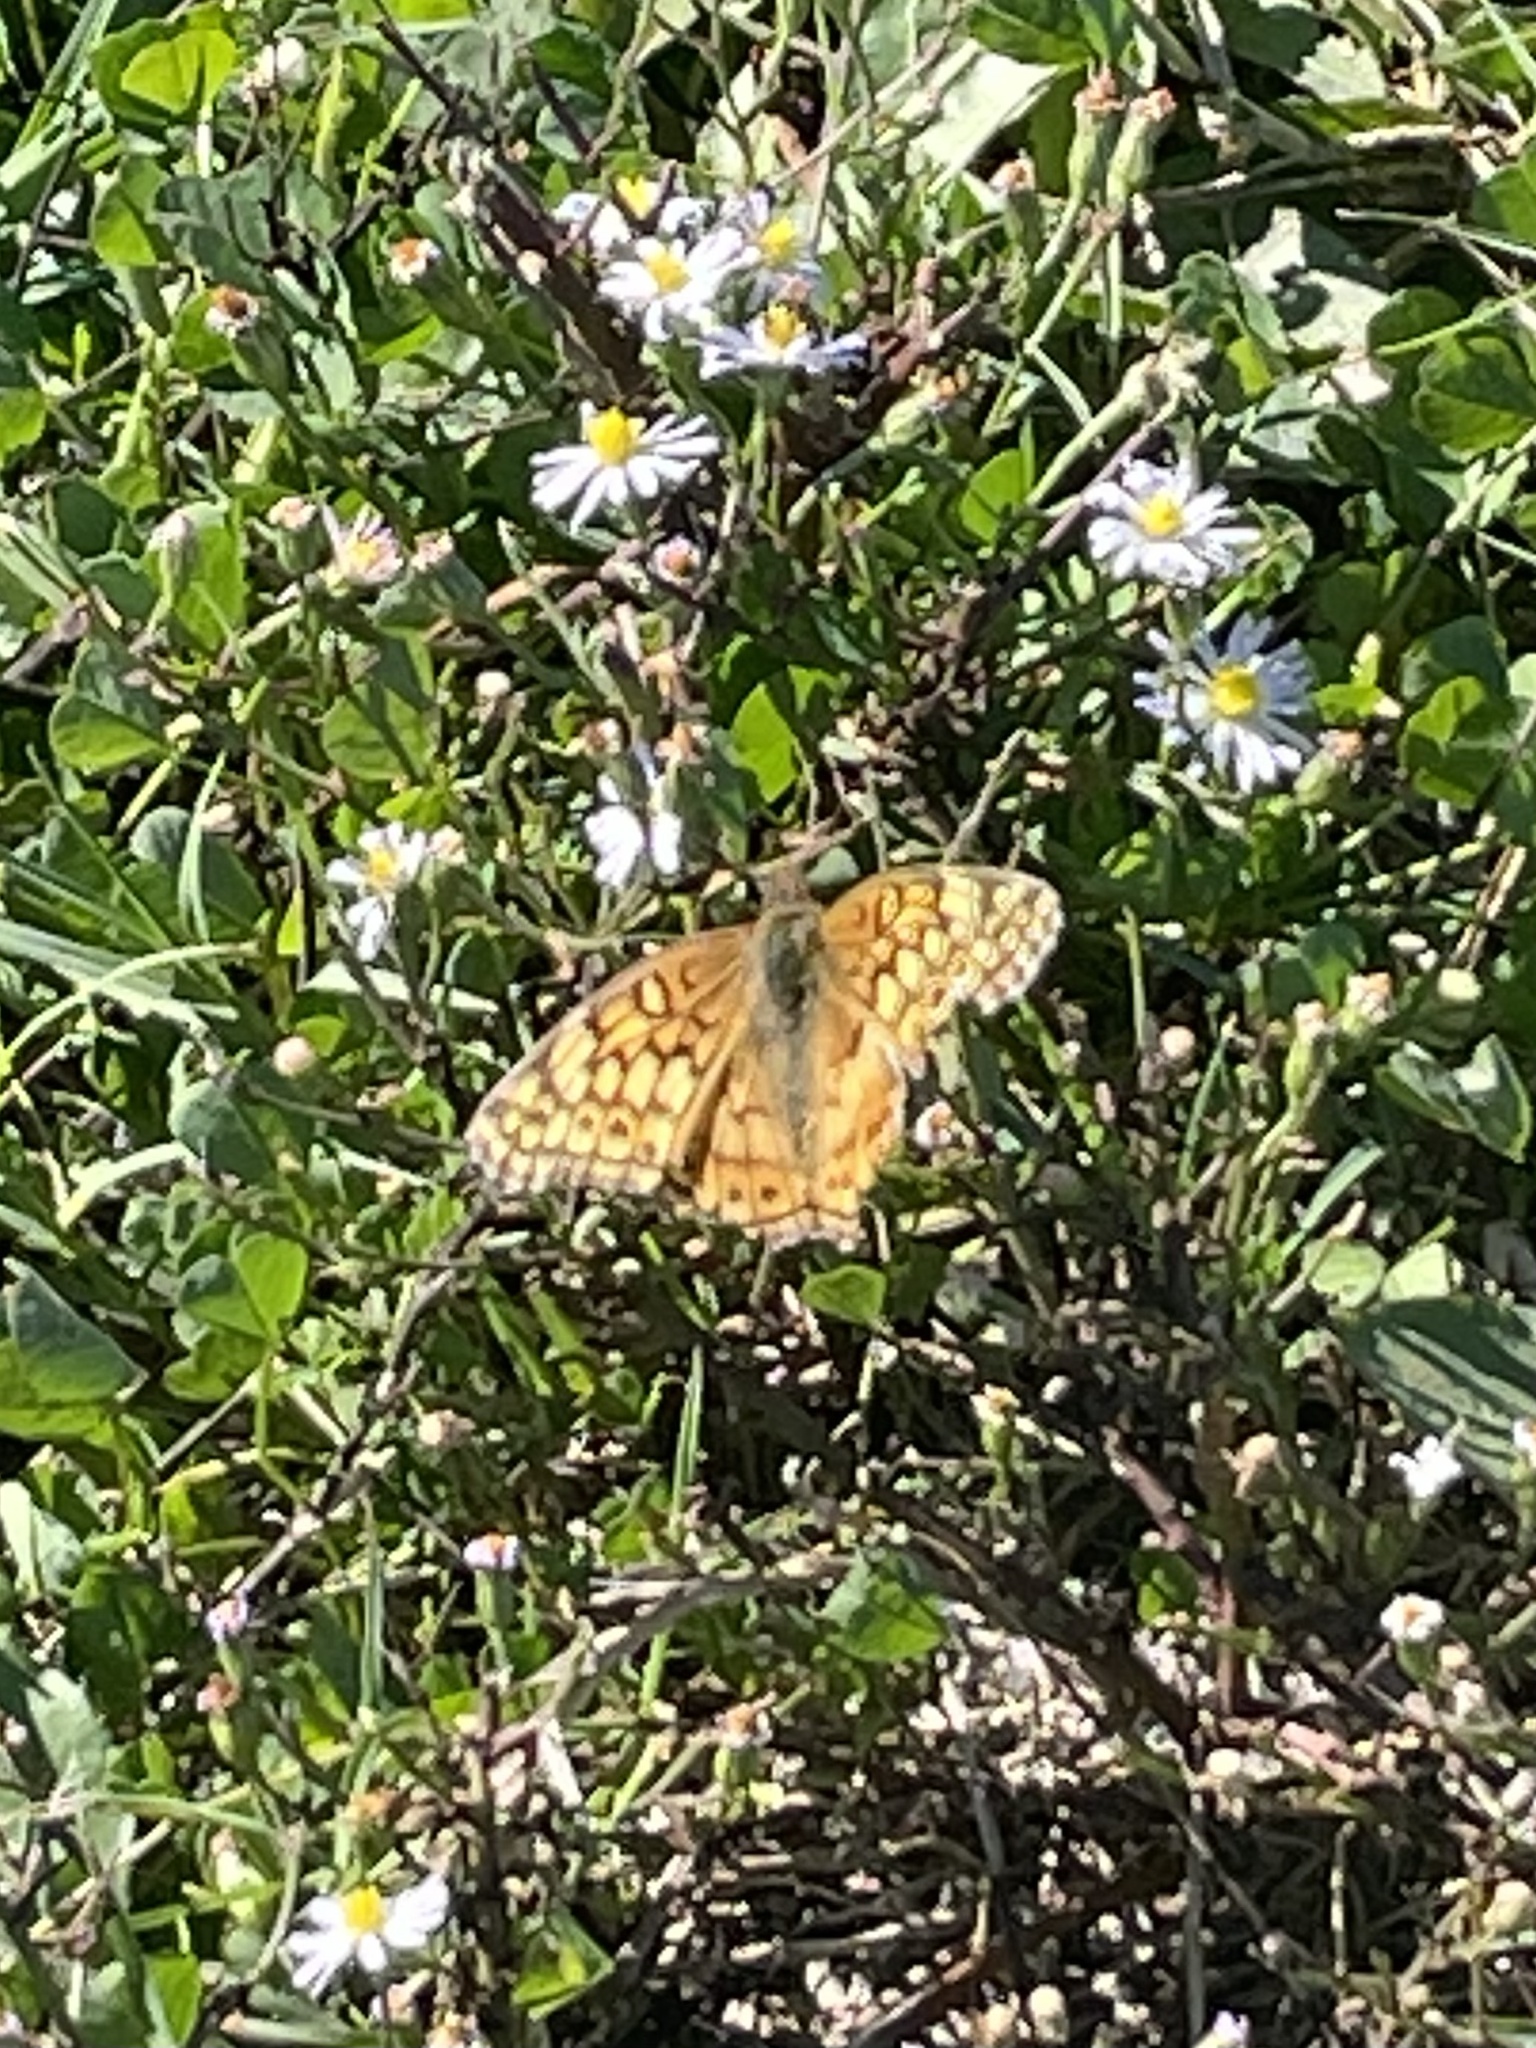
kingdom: Animalia
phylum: Arthropoda
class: Insecta
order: Lepidoptera
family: Nymphalidae
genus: Euptoieta
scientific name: Euptoieta claudia
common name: Variegated fritillary
